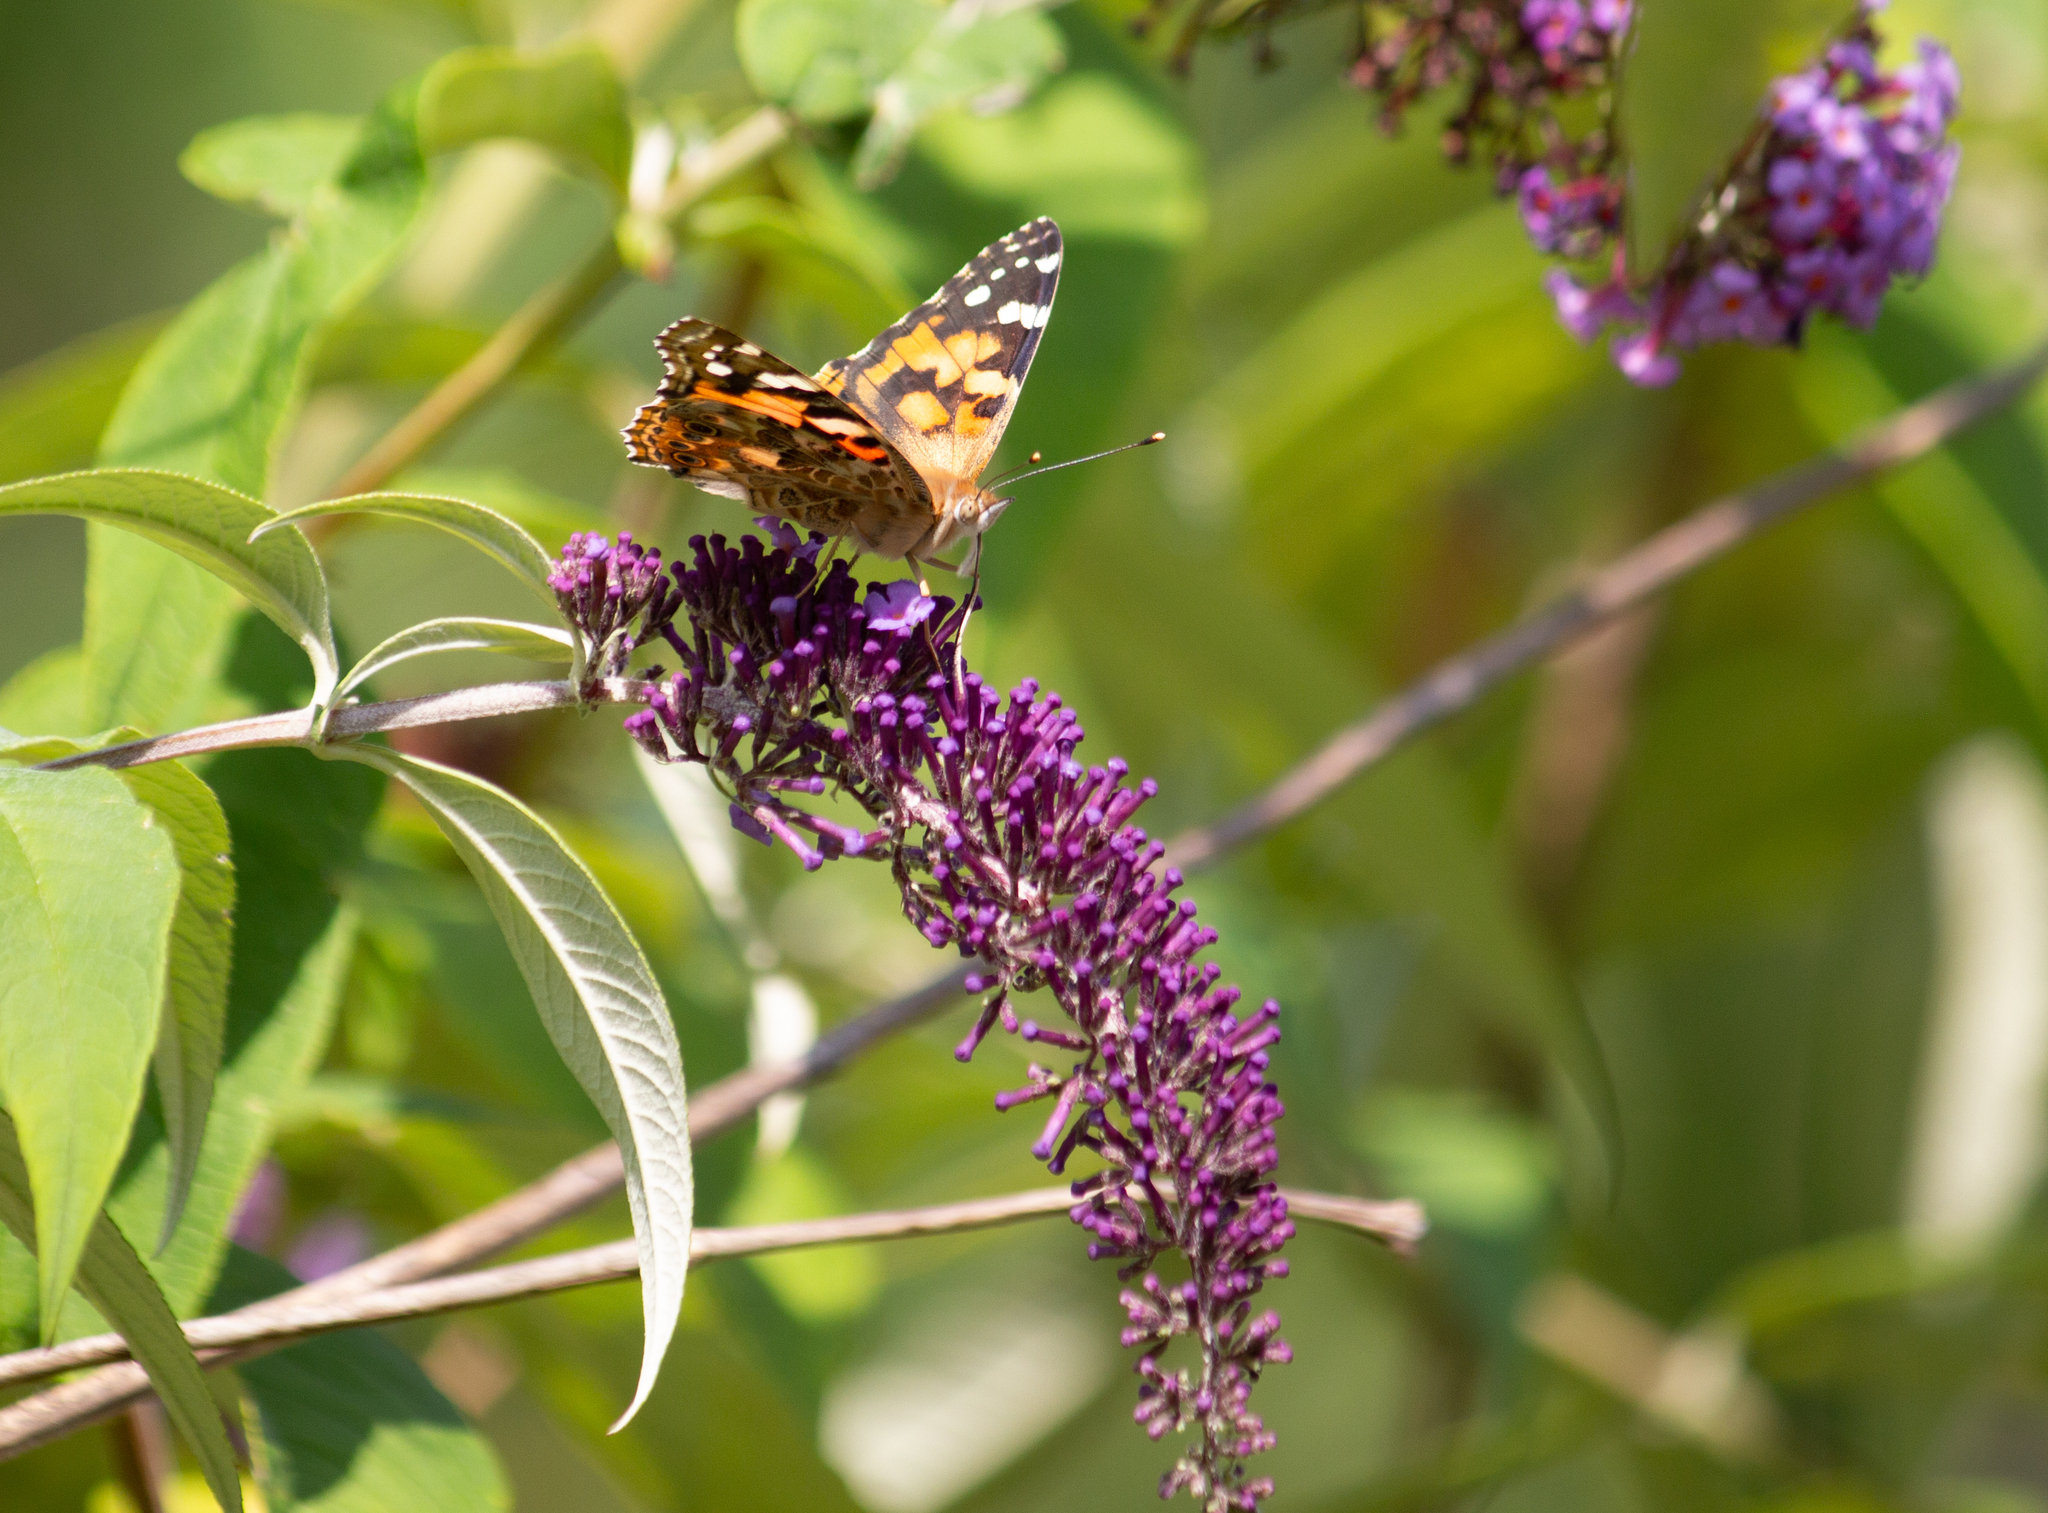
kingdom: Animalia
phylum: Arthropoda
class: Insecta
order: Lepidoptera
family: Nymphalidae
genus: Vanessa
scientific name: Vanessa cardui
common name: Painted lady
